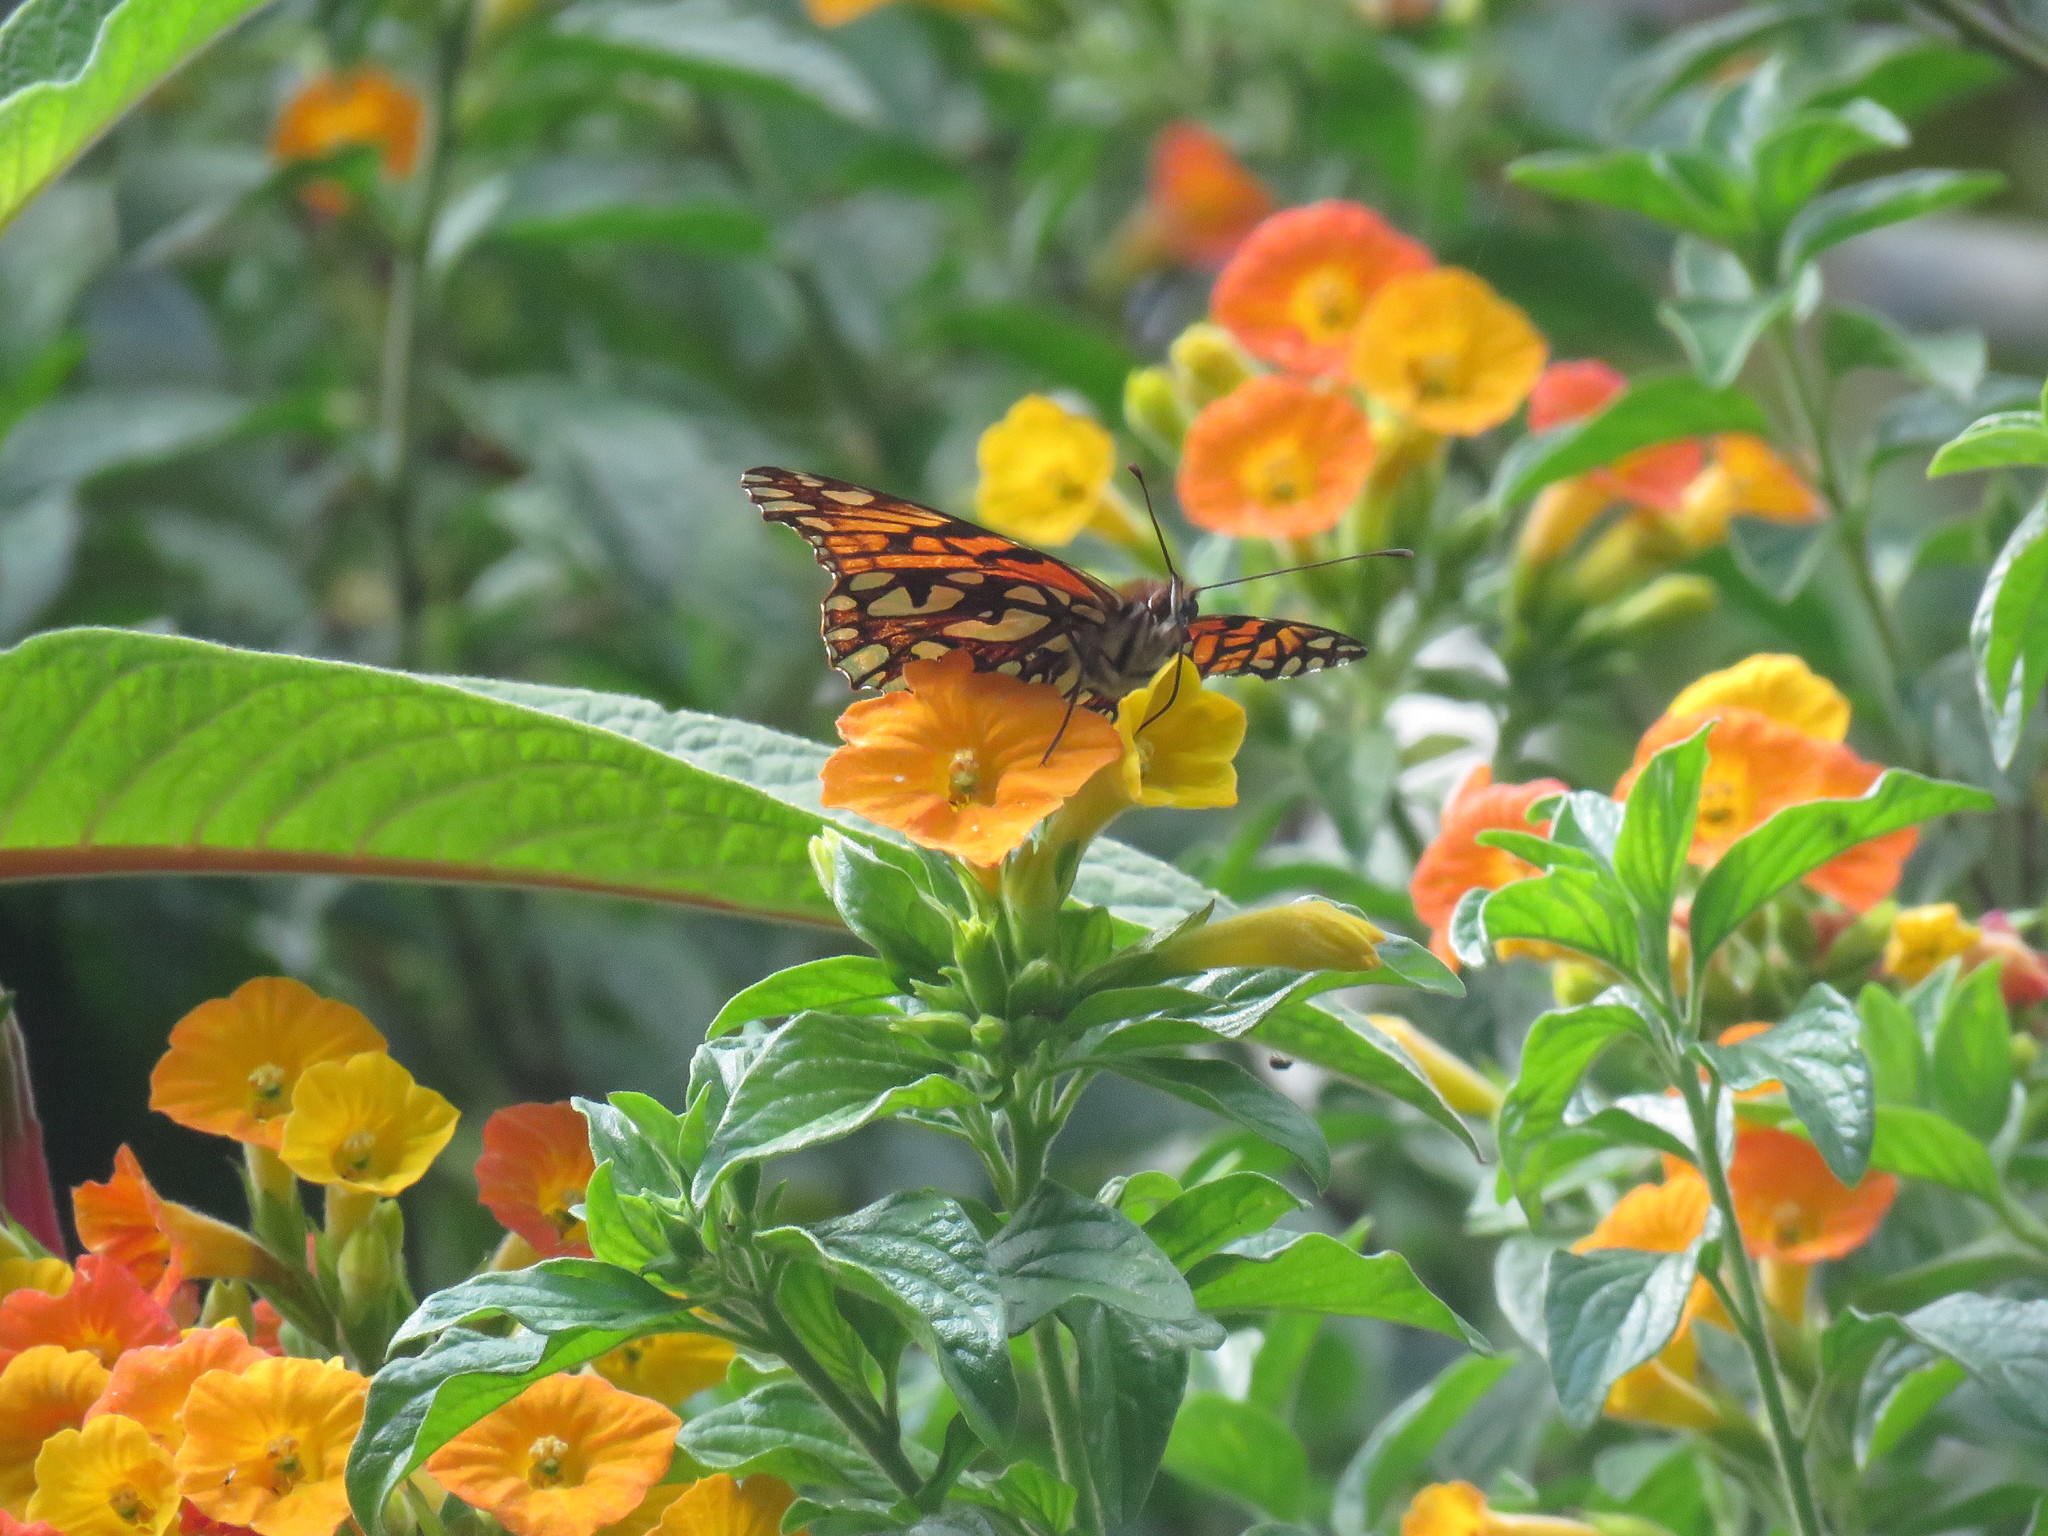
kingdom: Animalia
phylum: Arthropoda
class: Insecta
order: Lepidoptera
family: Nymphalidae
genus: Dione
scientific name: Dione glycera
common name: Andean silverspot
